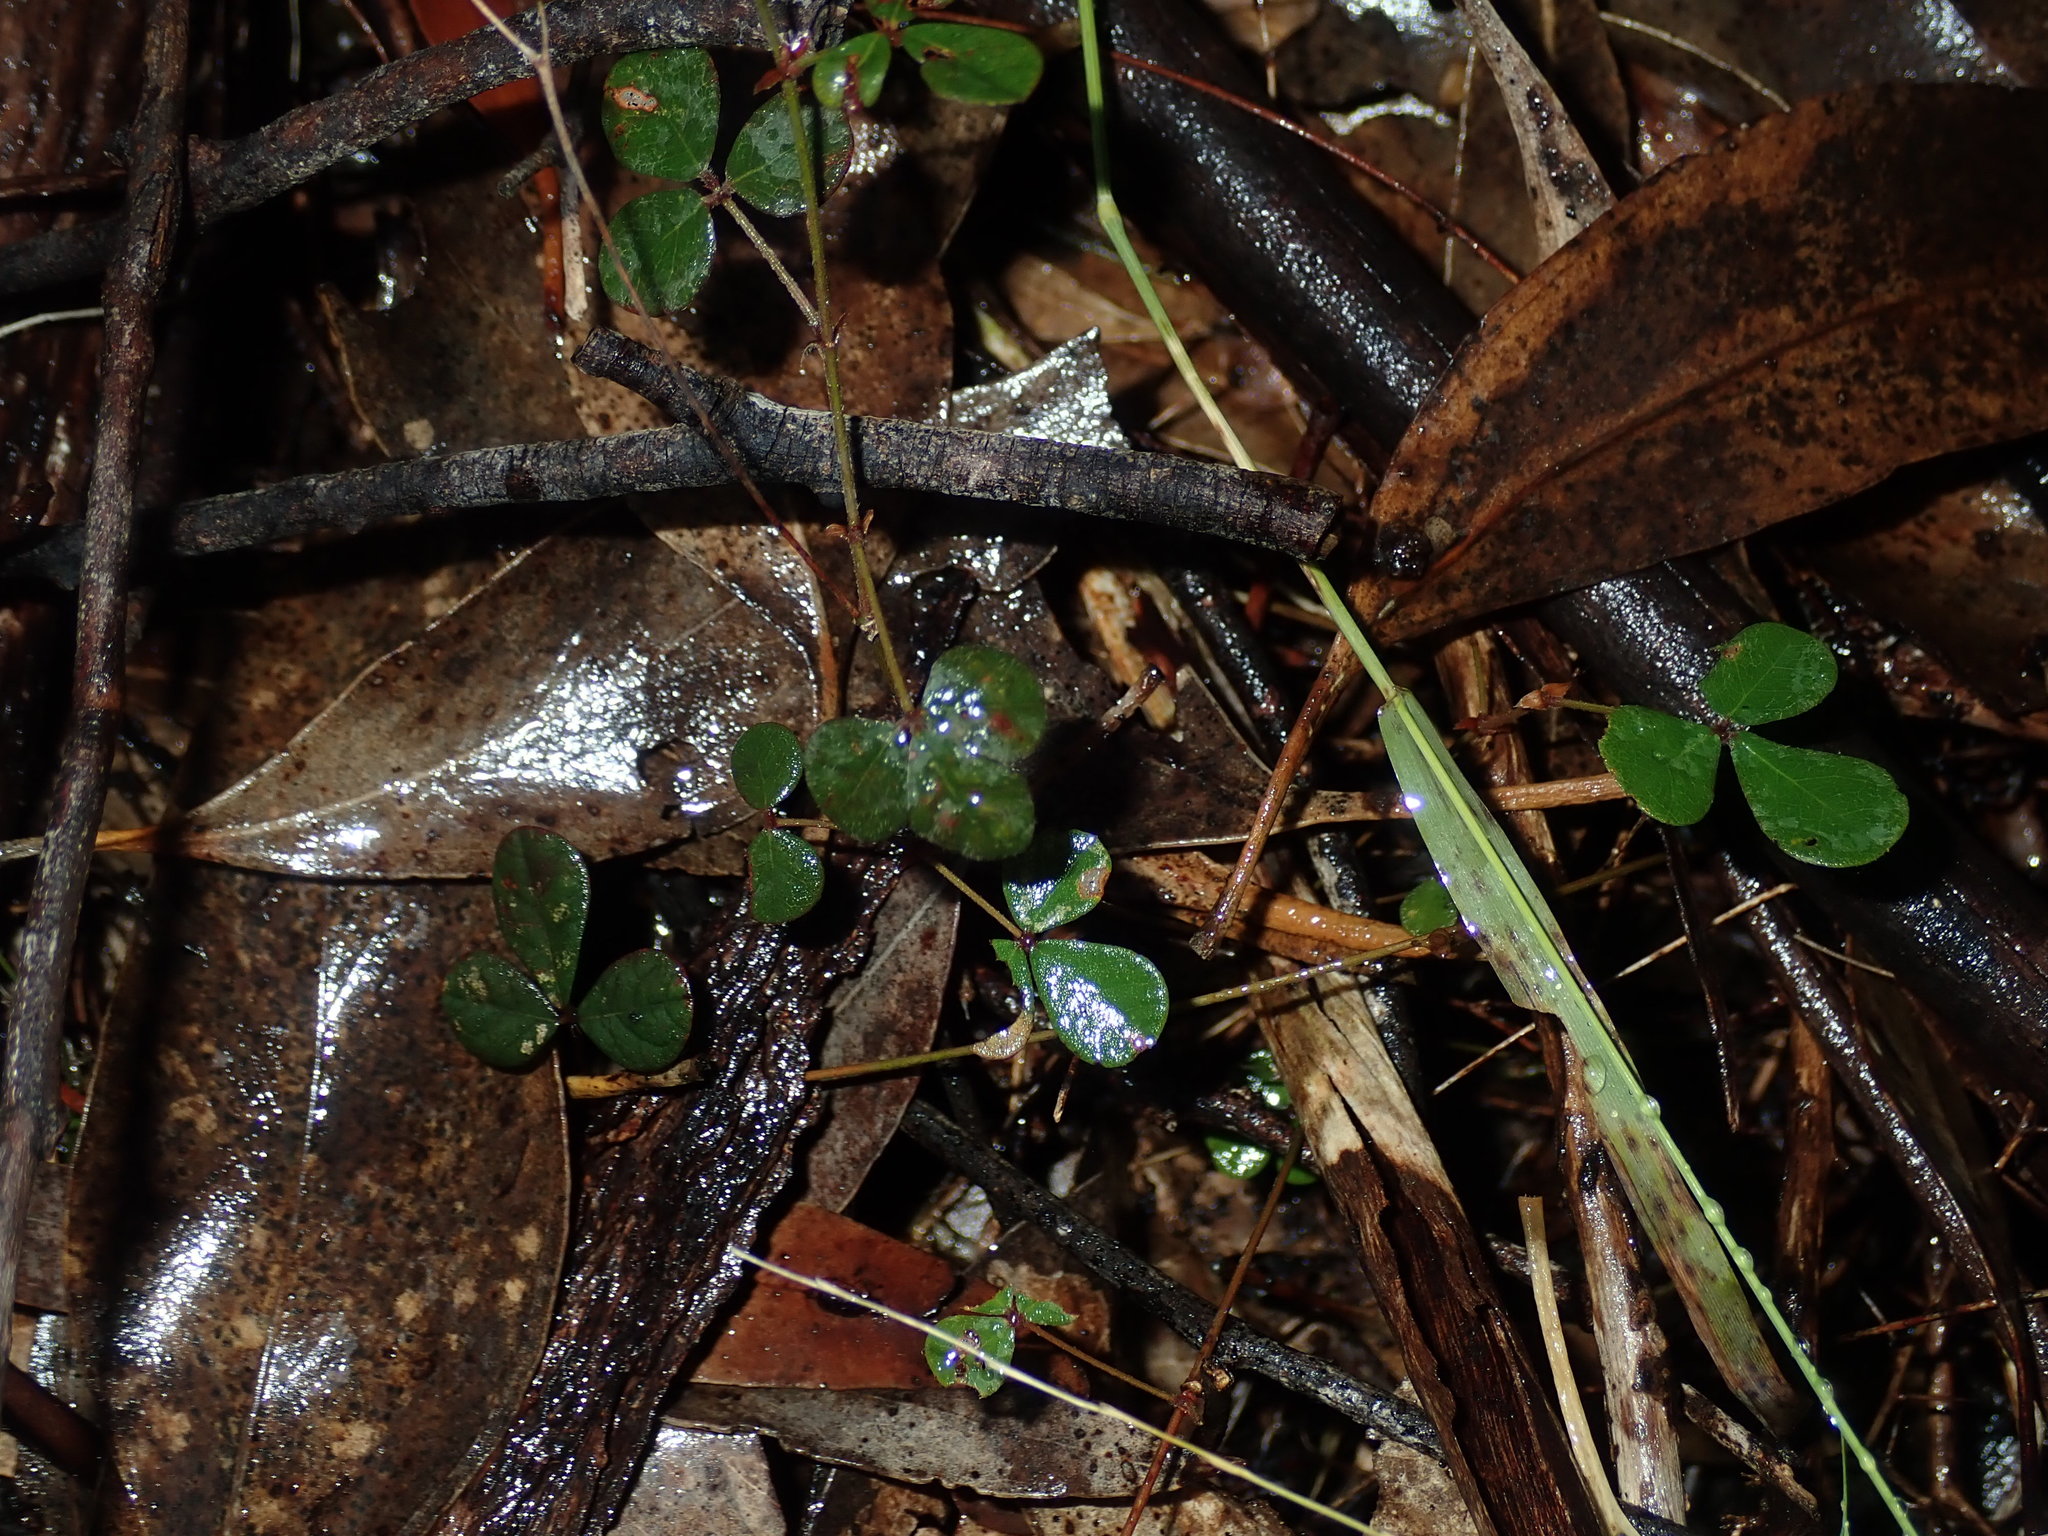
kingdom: Plantae
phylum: Tracheophyta
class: Magnoliopsida
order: Fabales
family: Fabaceae
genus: Pullenia
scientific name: Pullenia gunnii
